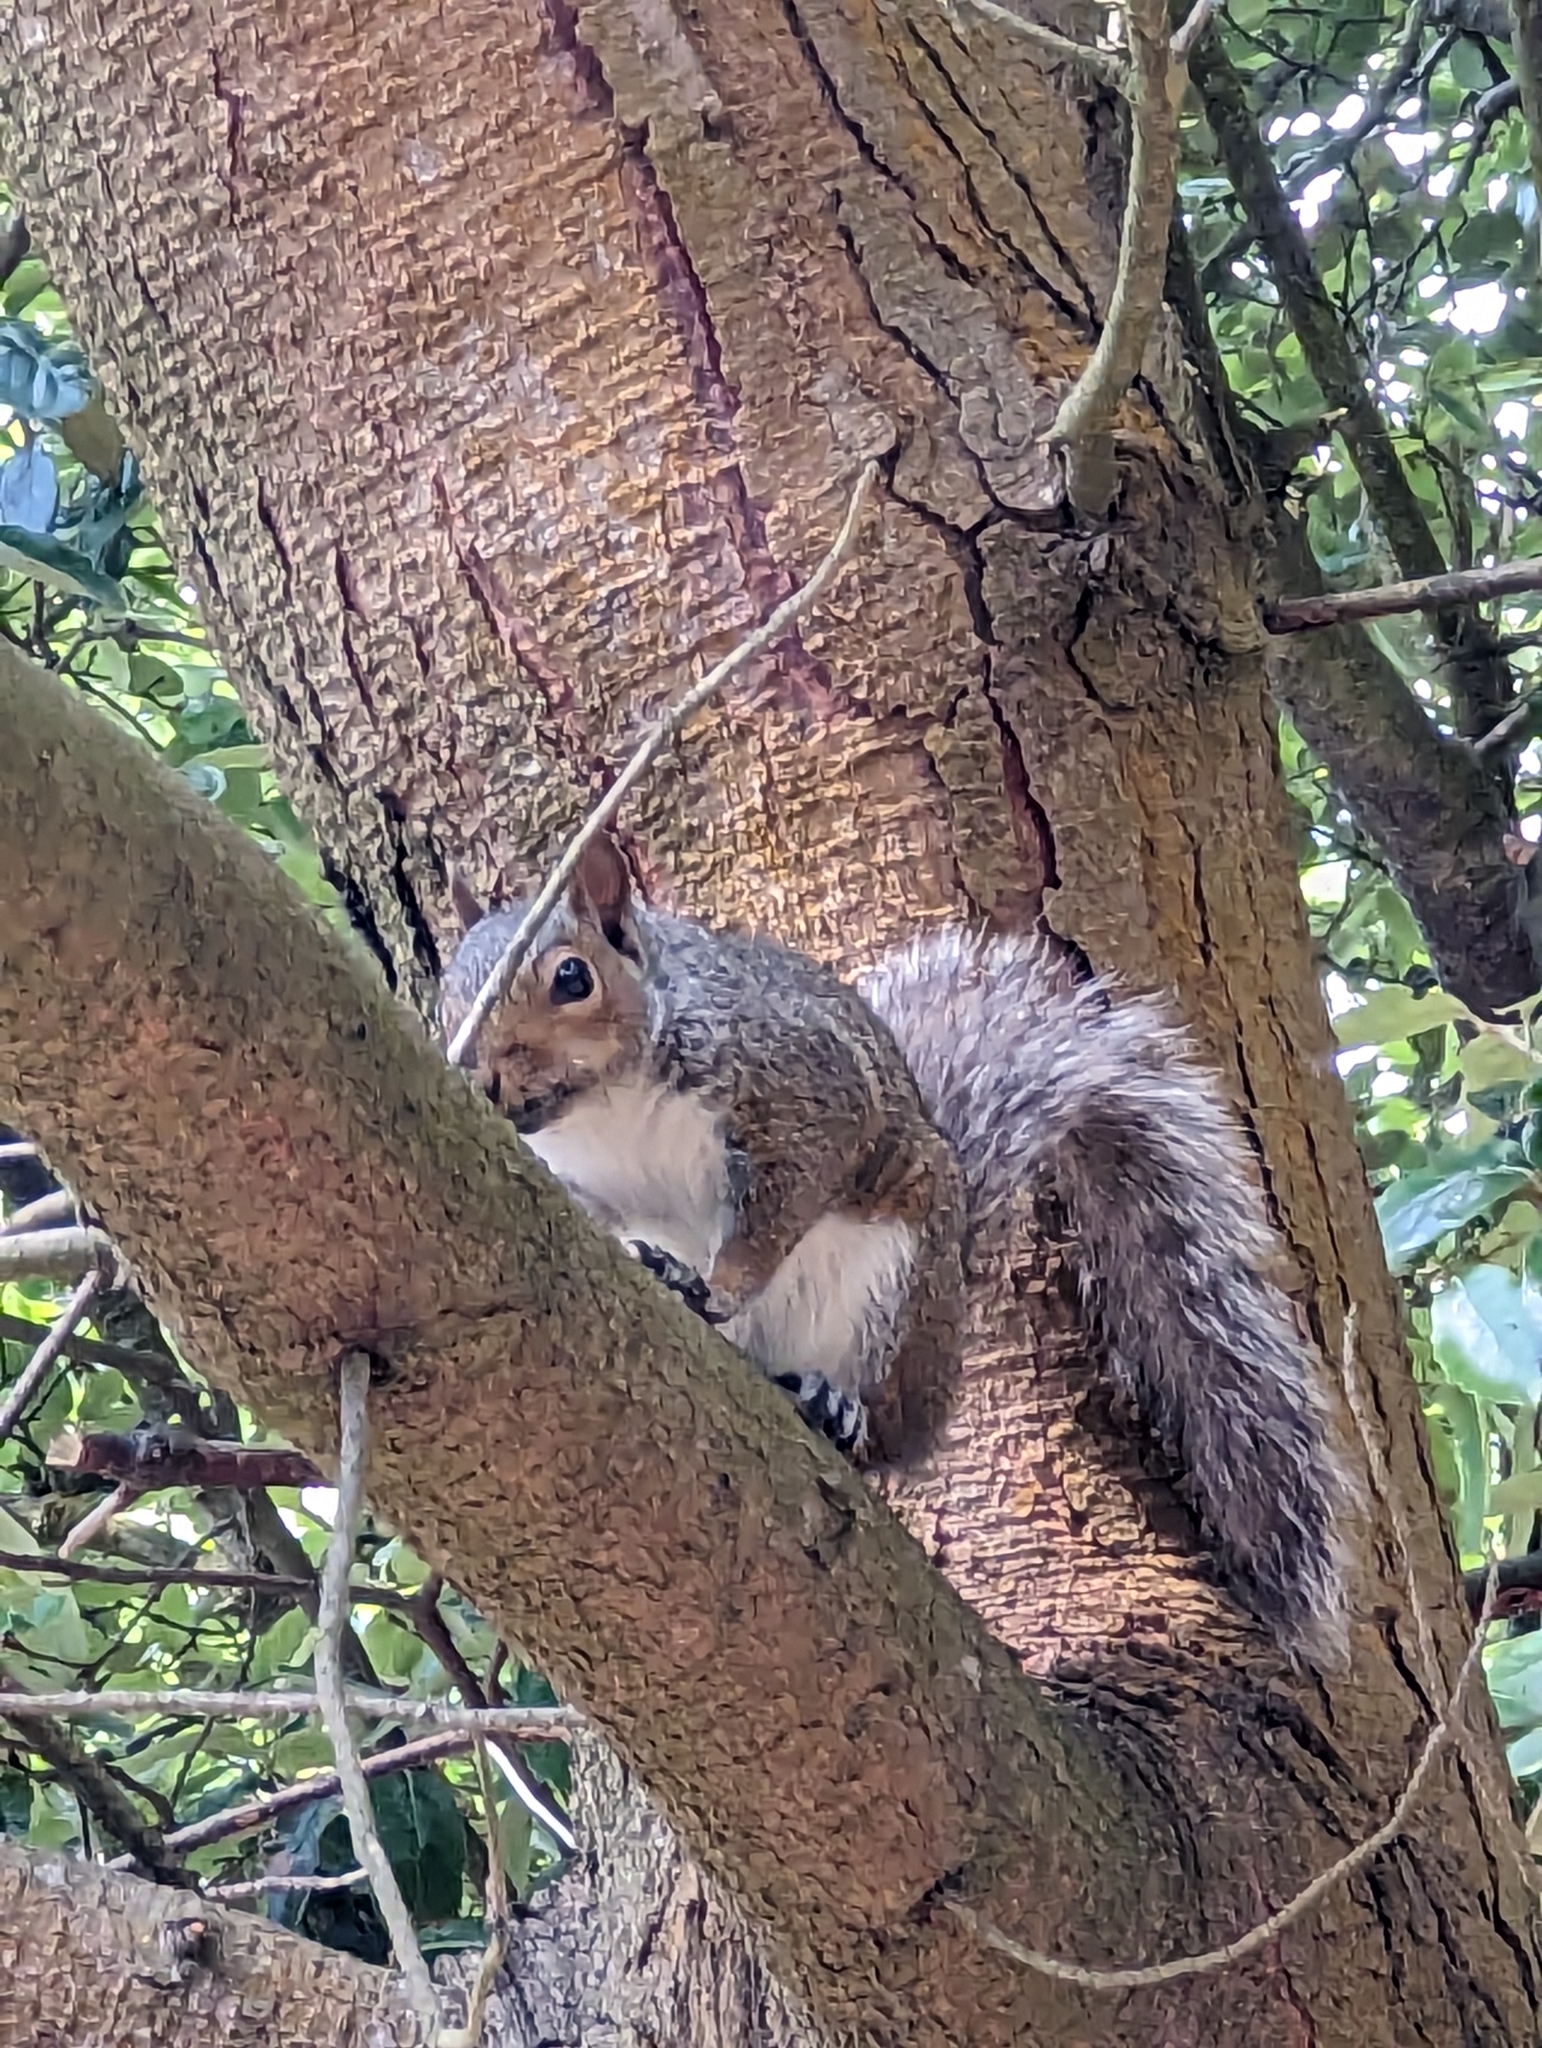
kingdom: Animalia
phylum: Chordata
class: Mammalia
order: Rodentia
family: Sciuridae
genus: Sciurus
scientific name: Sciurus carolinensis
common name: Eastern gray squirrel
